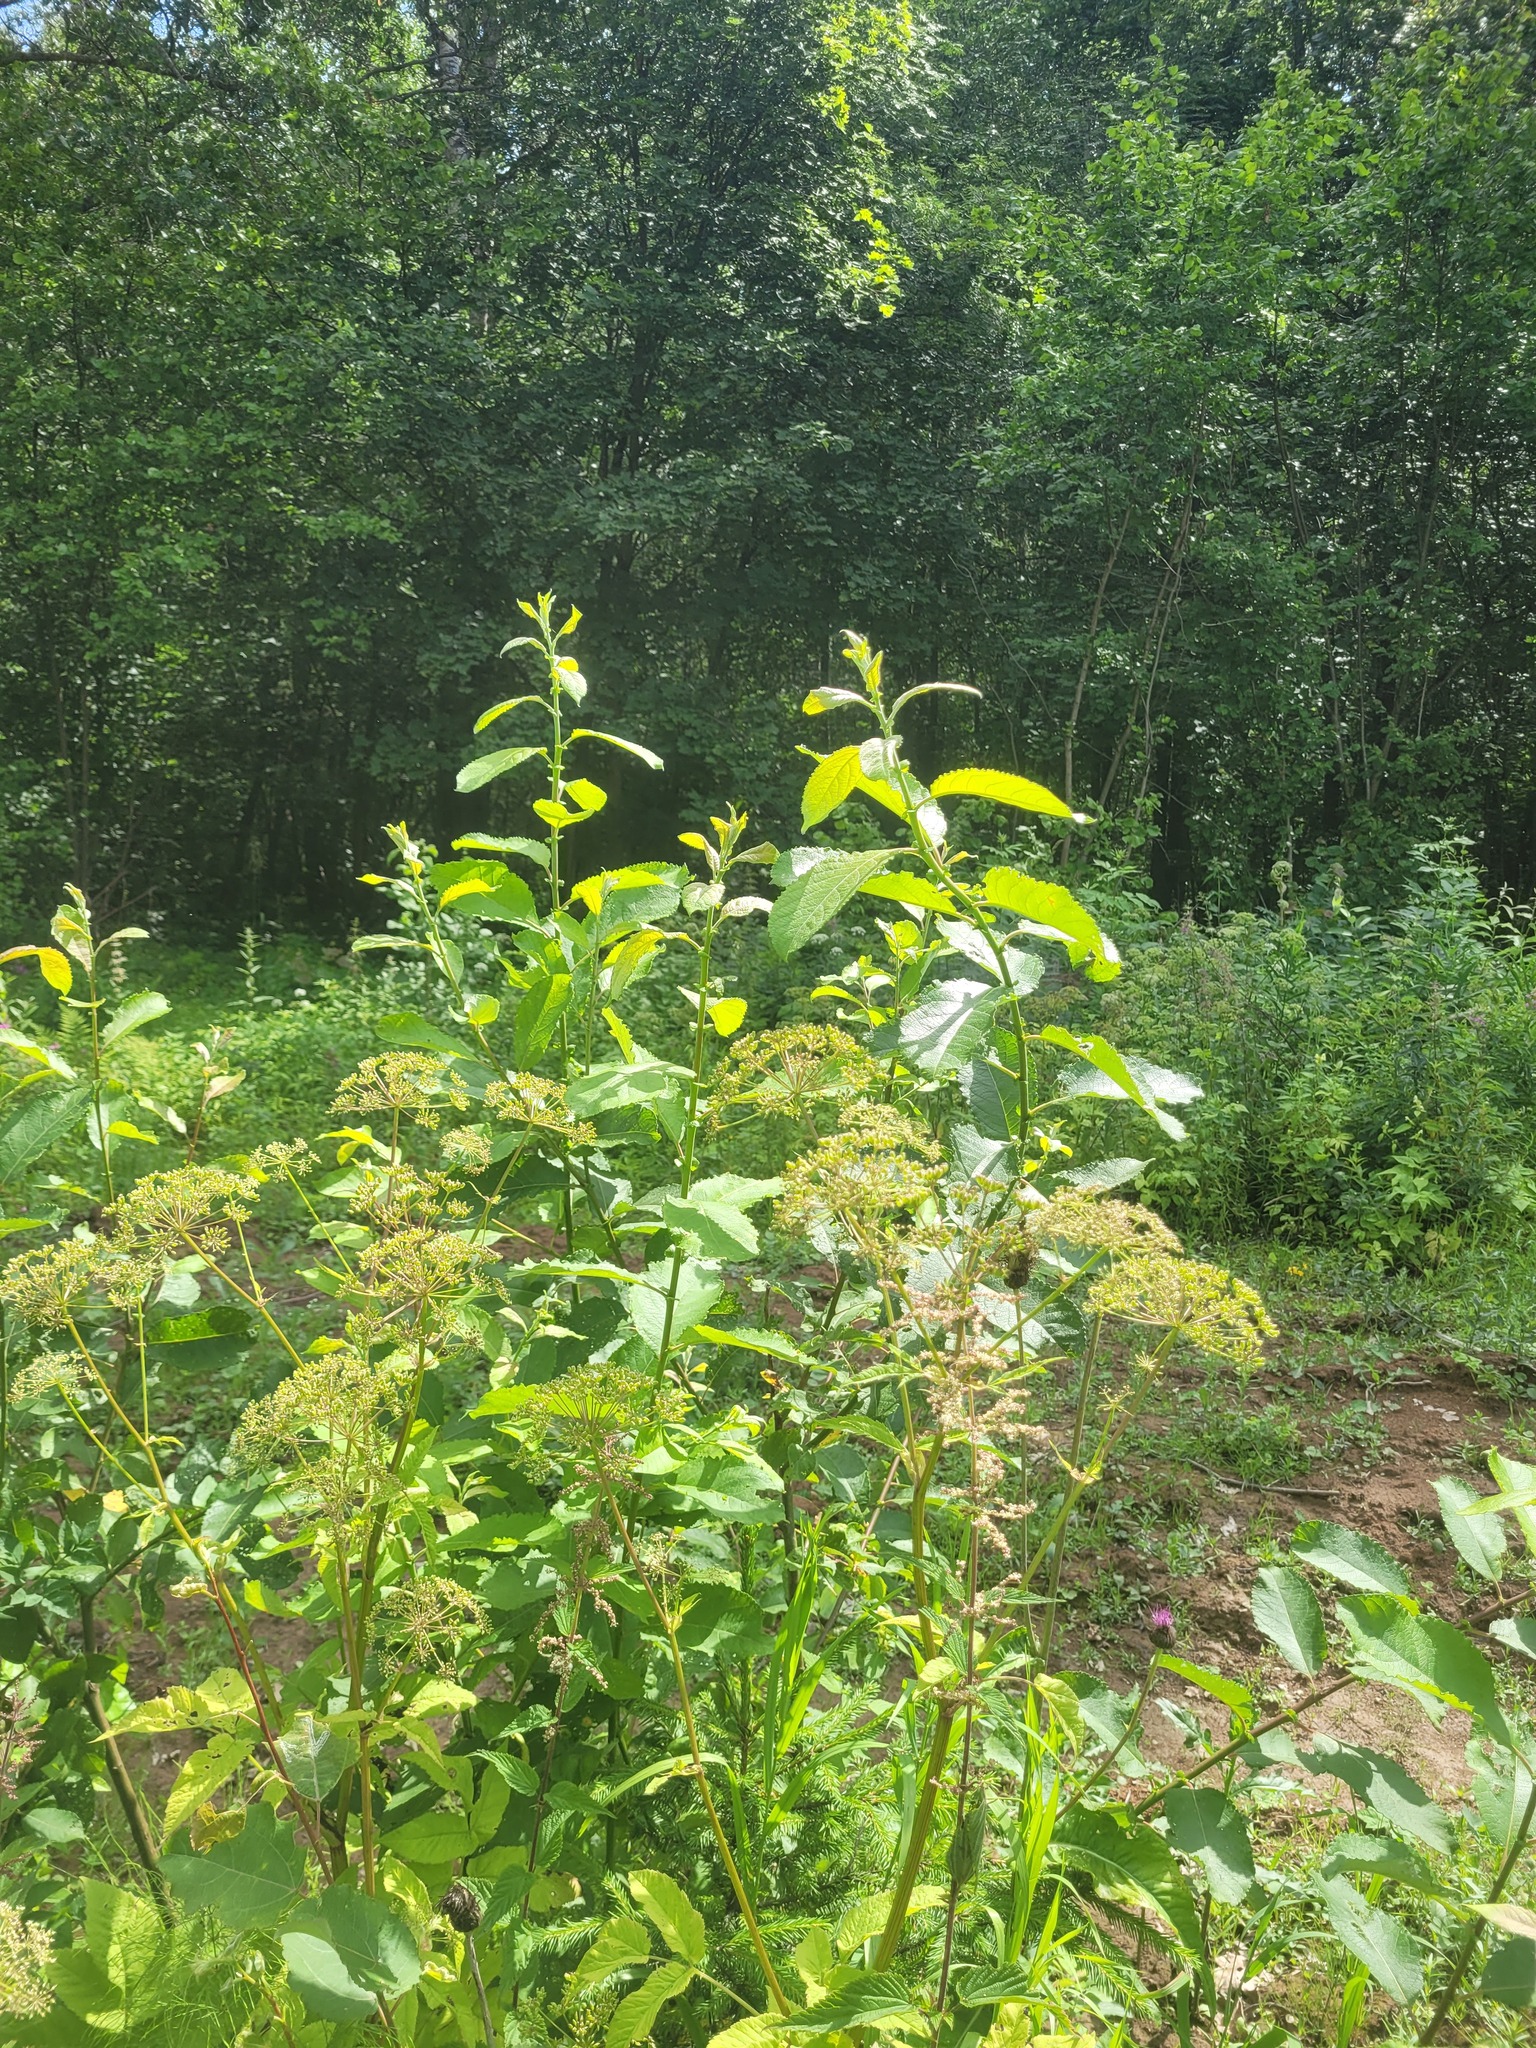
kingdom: Plantae
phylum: Tracheophyta
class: Magnoliopsida
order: Malpighiales
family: Salicaceae
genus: Salix
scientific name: Salix caprea
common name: Goat willow
